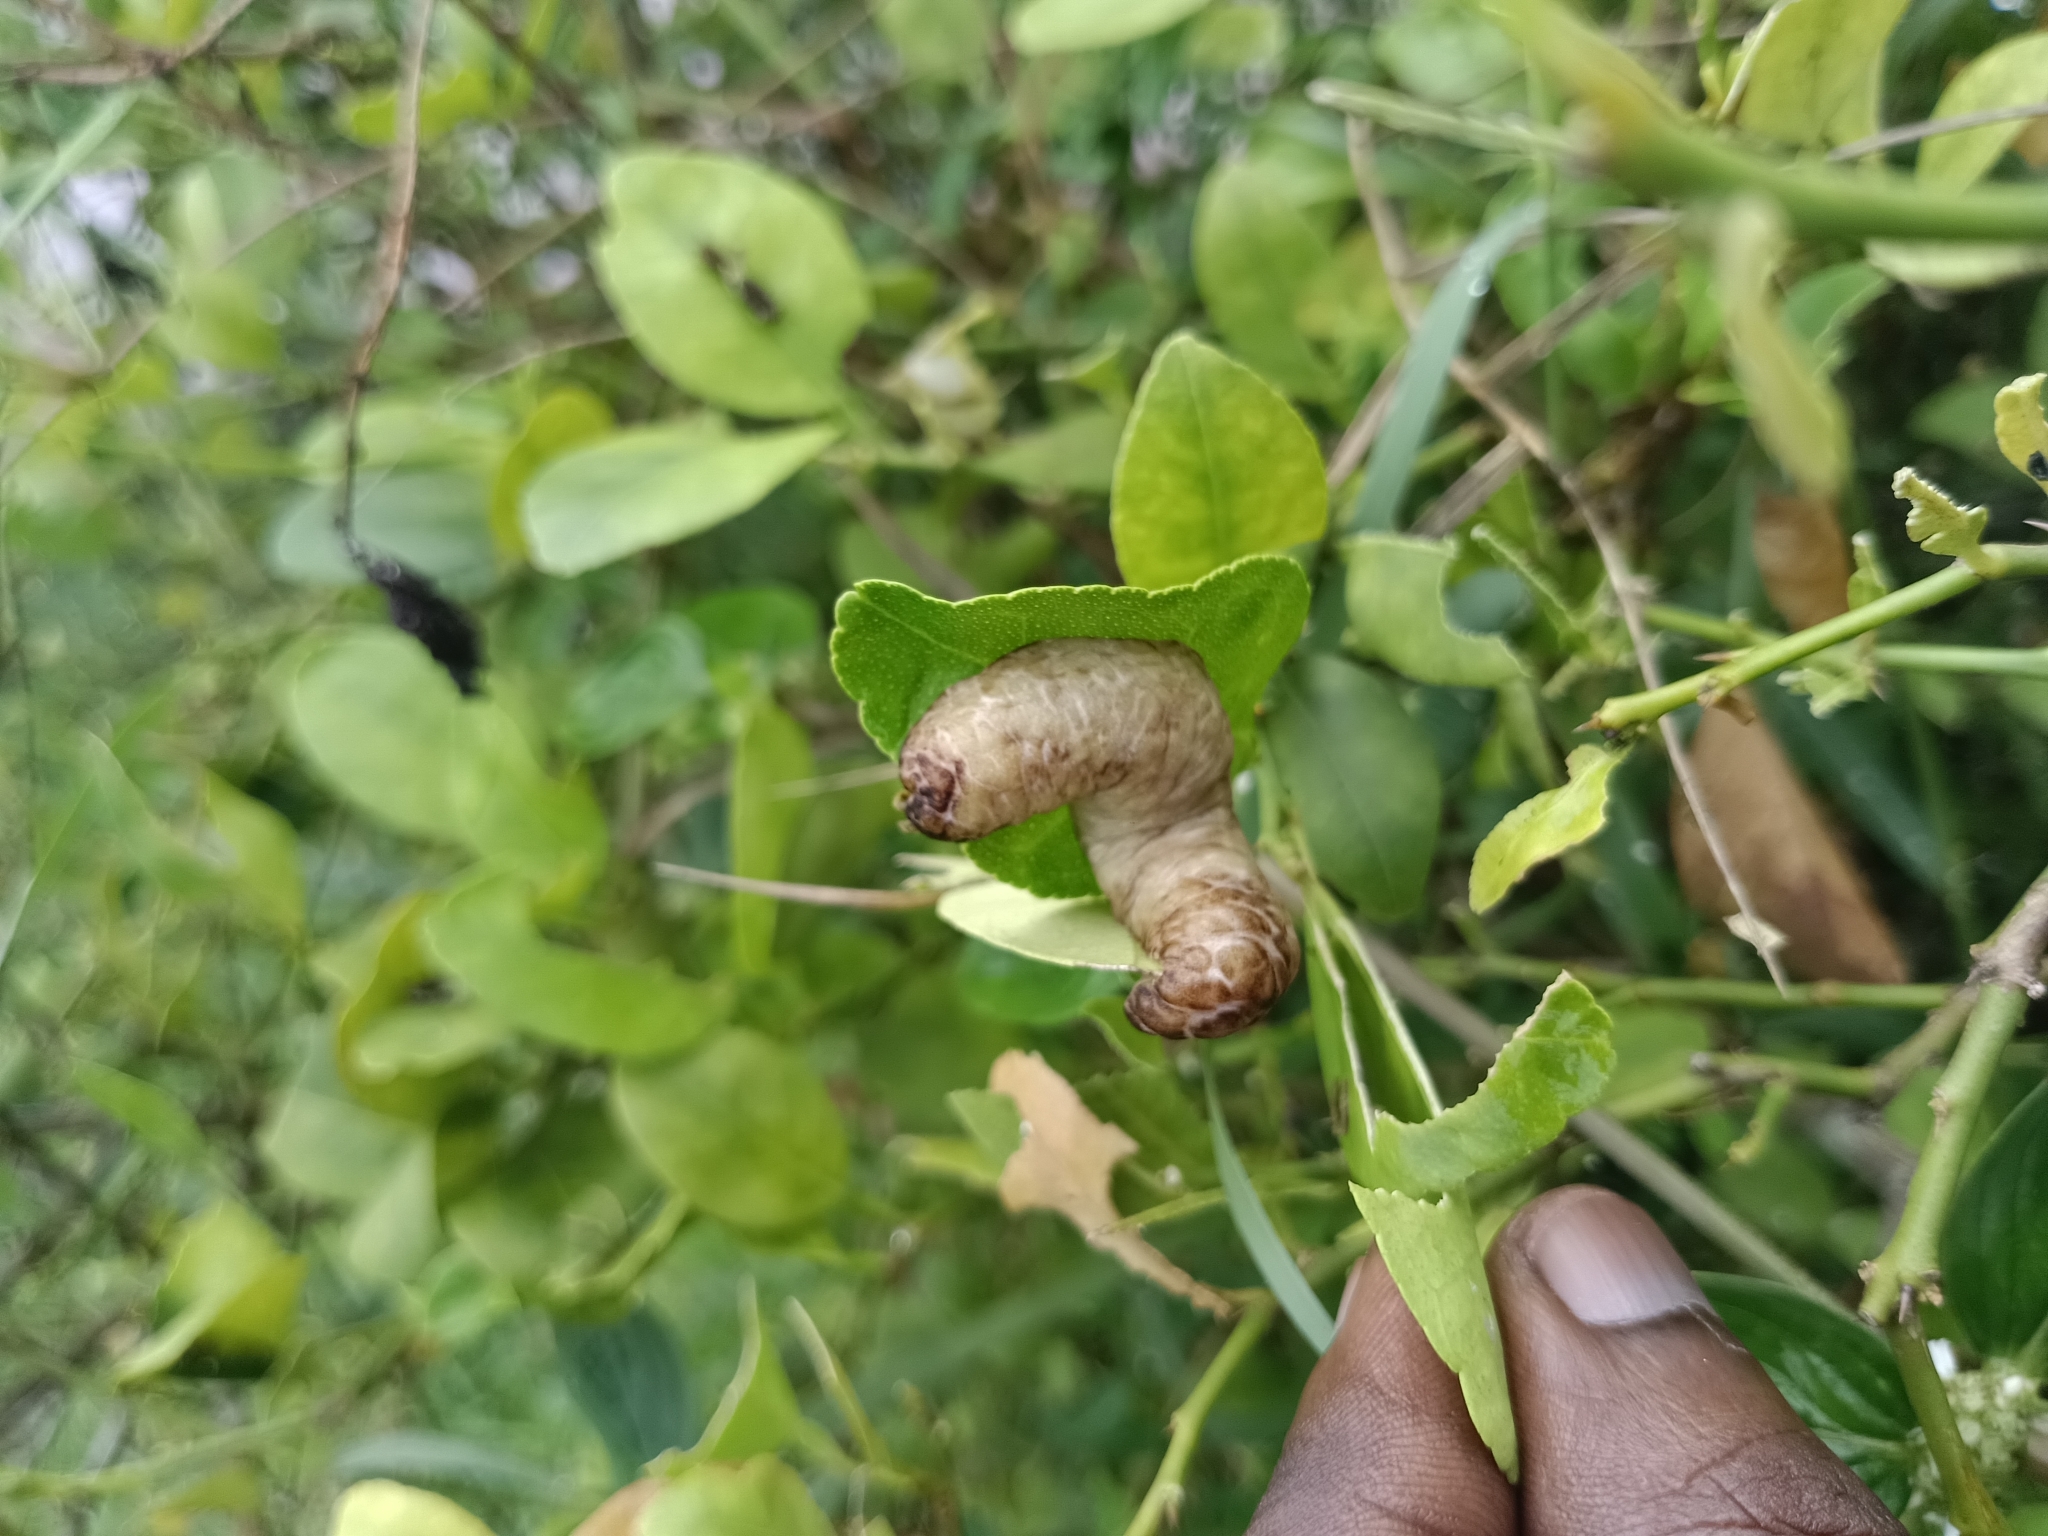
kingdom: Animalia
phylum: Mollusca
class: Gastropoda
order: Systellommatophora
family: Veronicellidae
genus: Laevicaulis
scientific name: Laevicaulis haroldi
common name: Caterpillar slug
